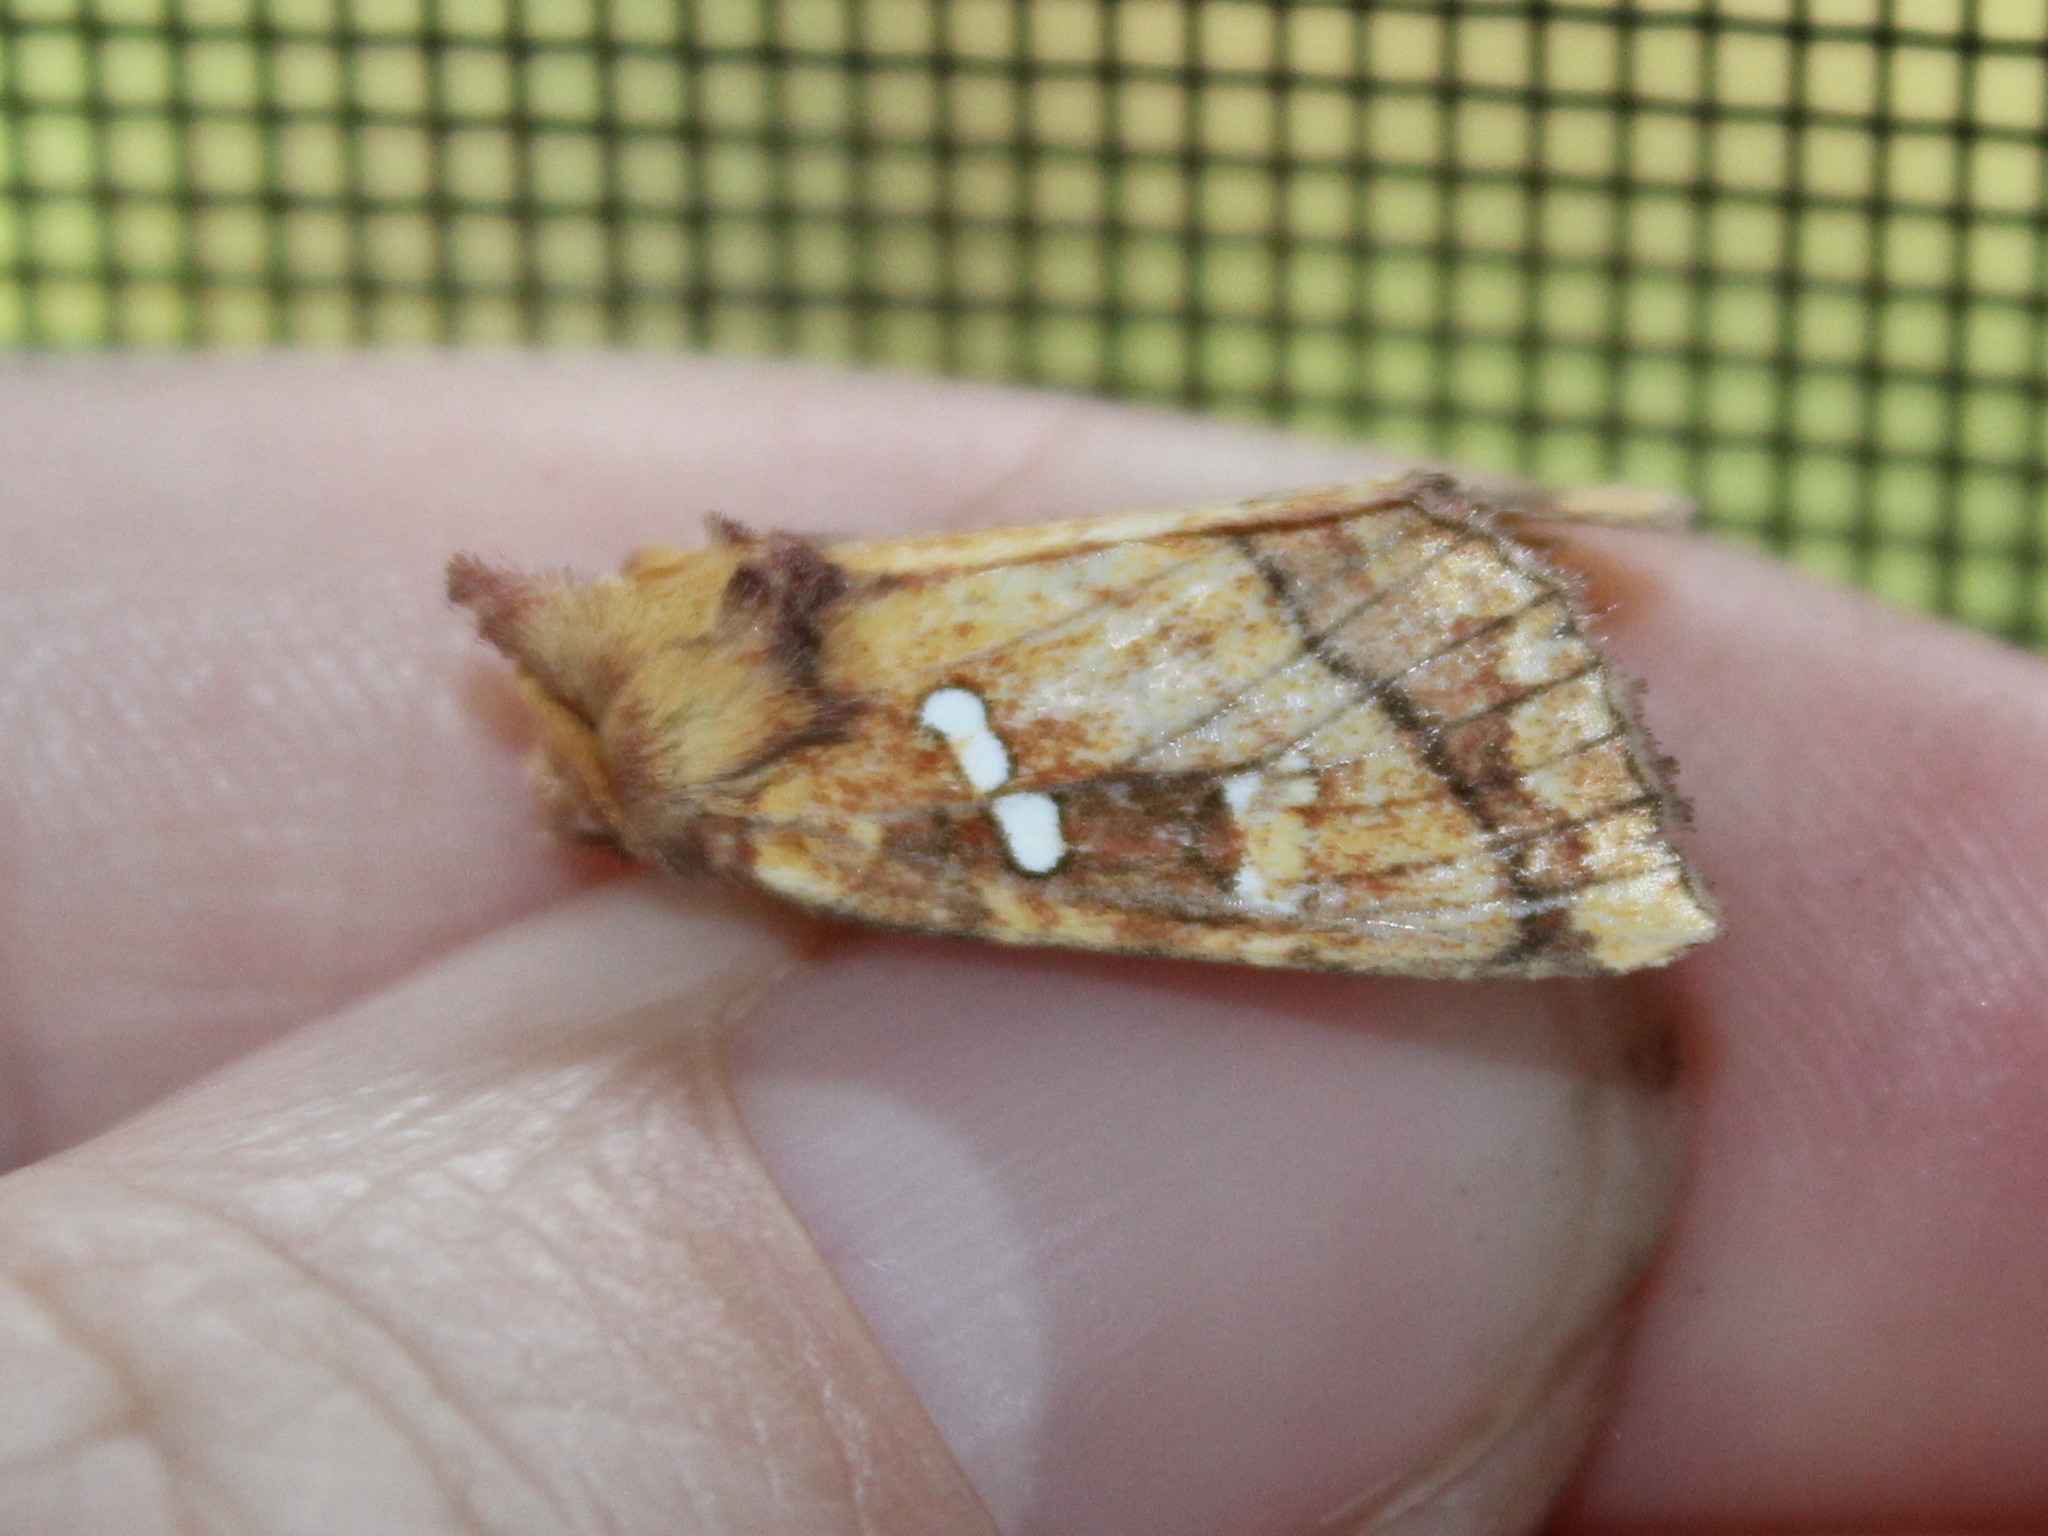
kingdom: Animalia
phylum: Arthropoda
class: Insecta
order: Lepidoptera
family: Noctuidae
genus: Papaipema
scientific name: Papaipema pterisii
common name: Bracken borer moth
